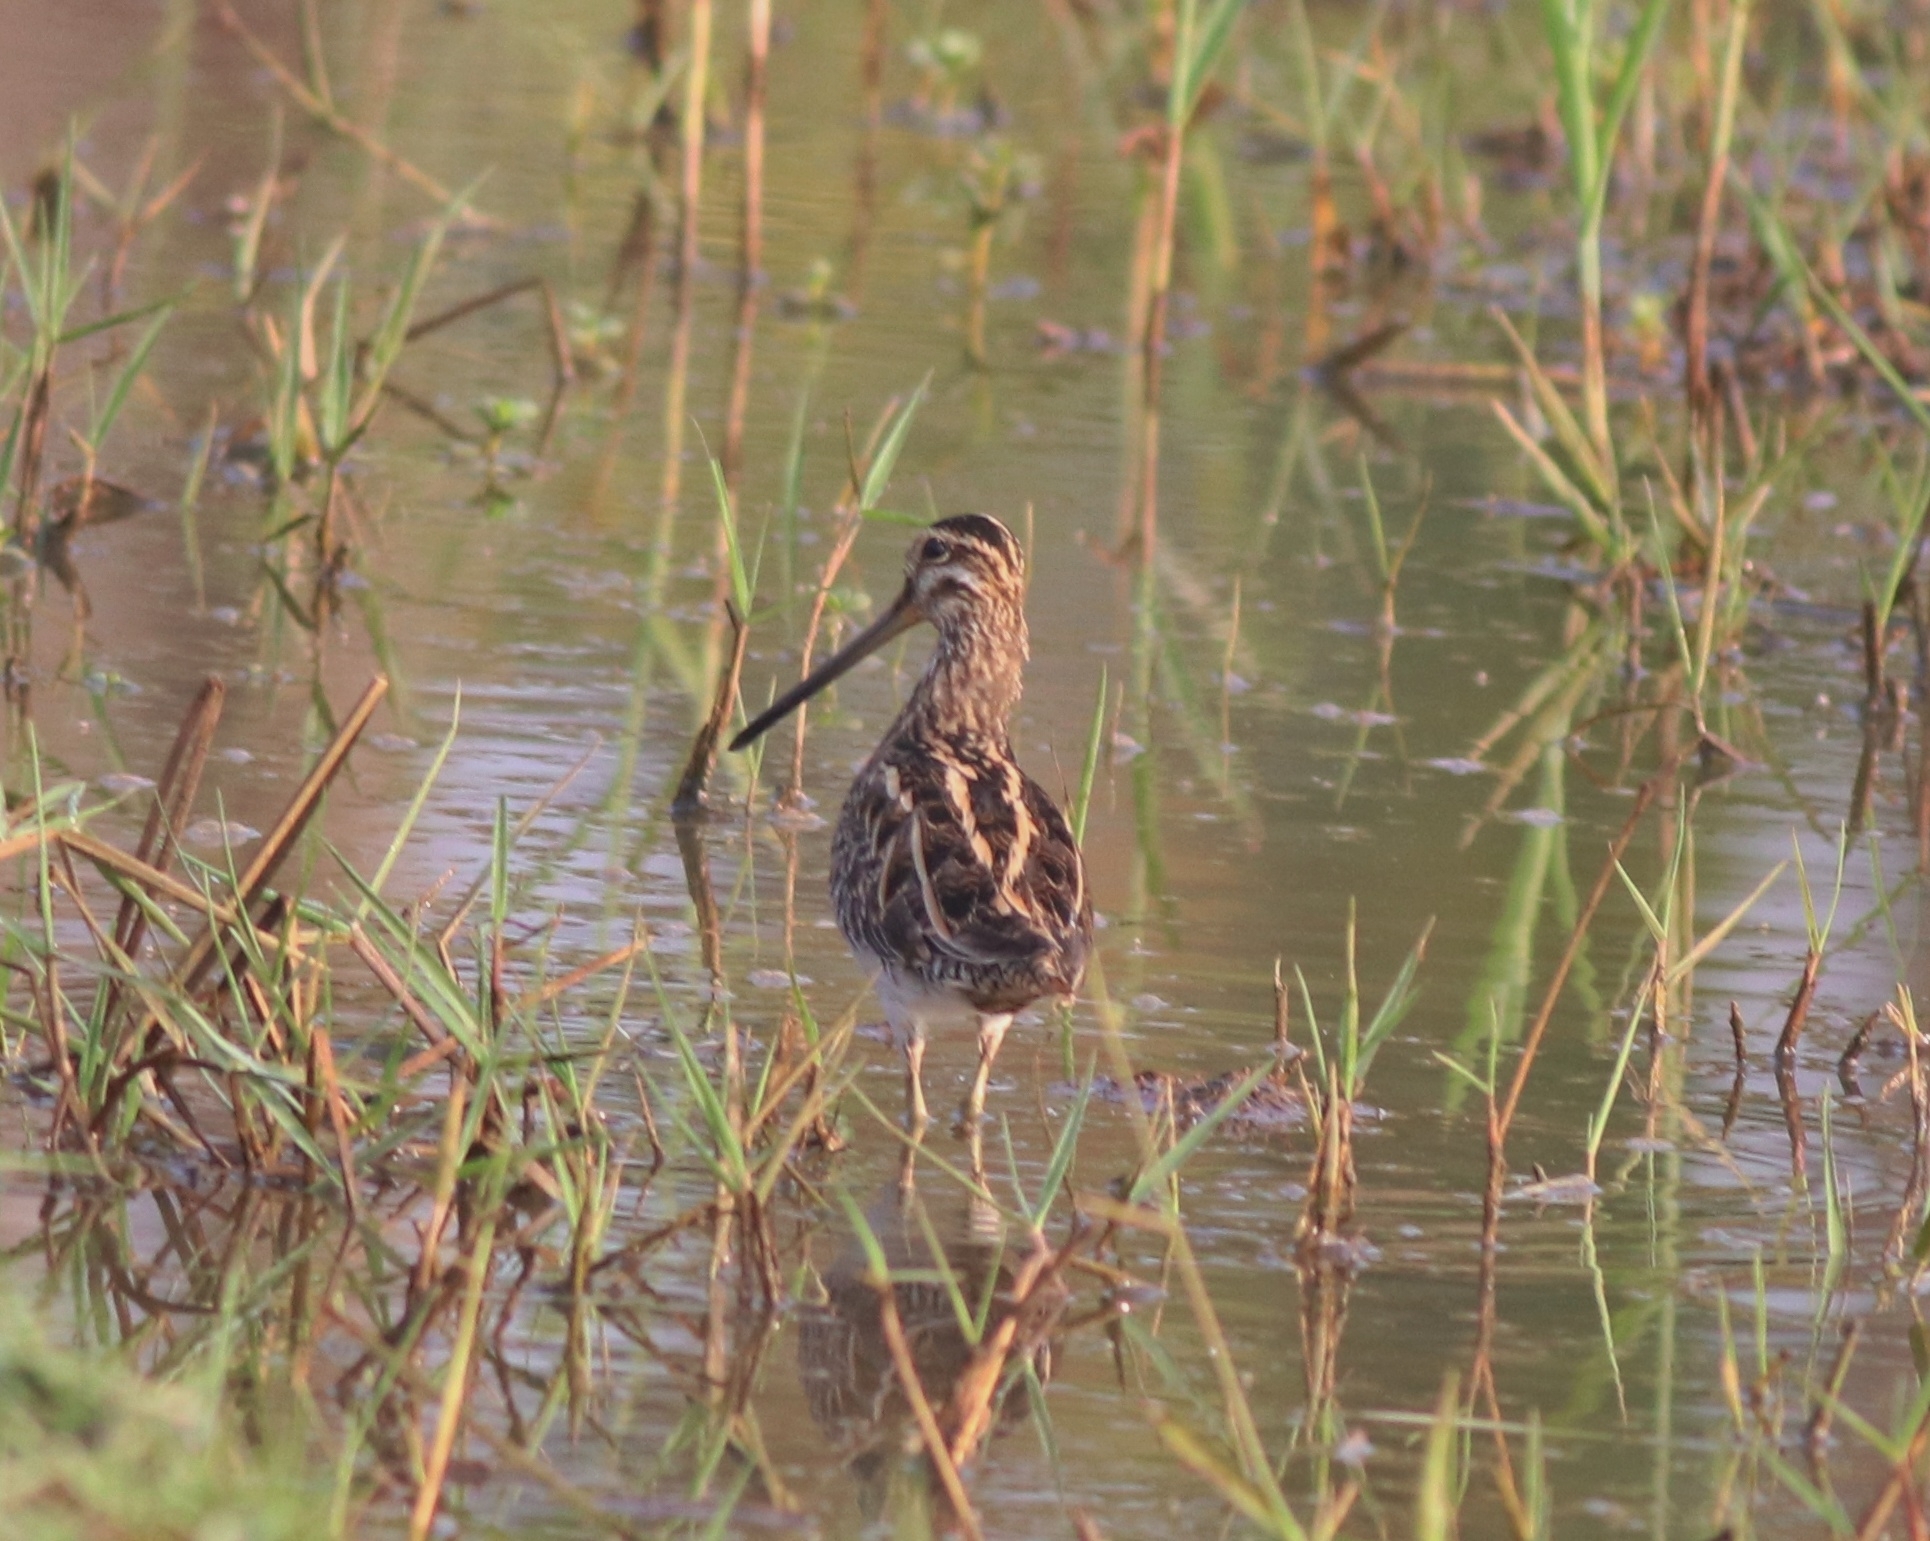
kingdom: Animalia
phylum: Chordata
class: Aves
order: Charadriiformes
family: Scolopacidae
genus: Gallinago
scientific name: Gallinago gallinago
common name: Common snipe
